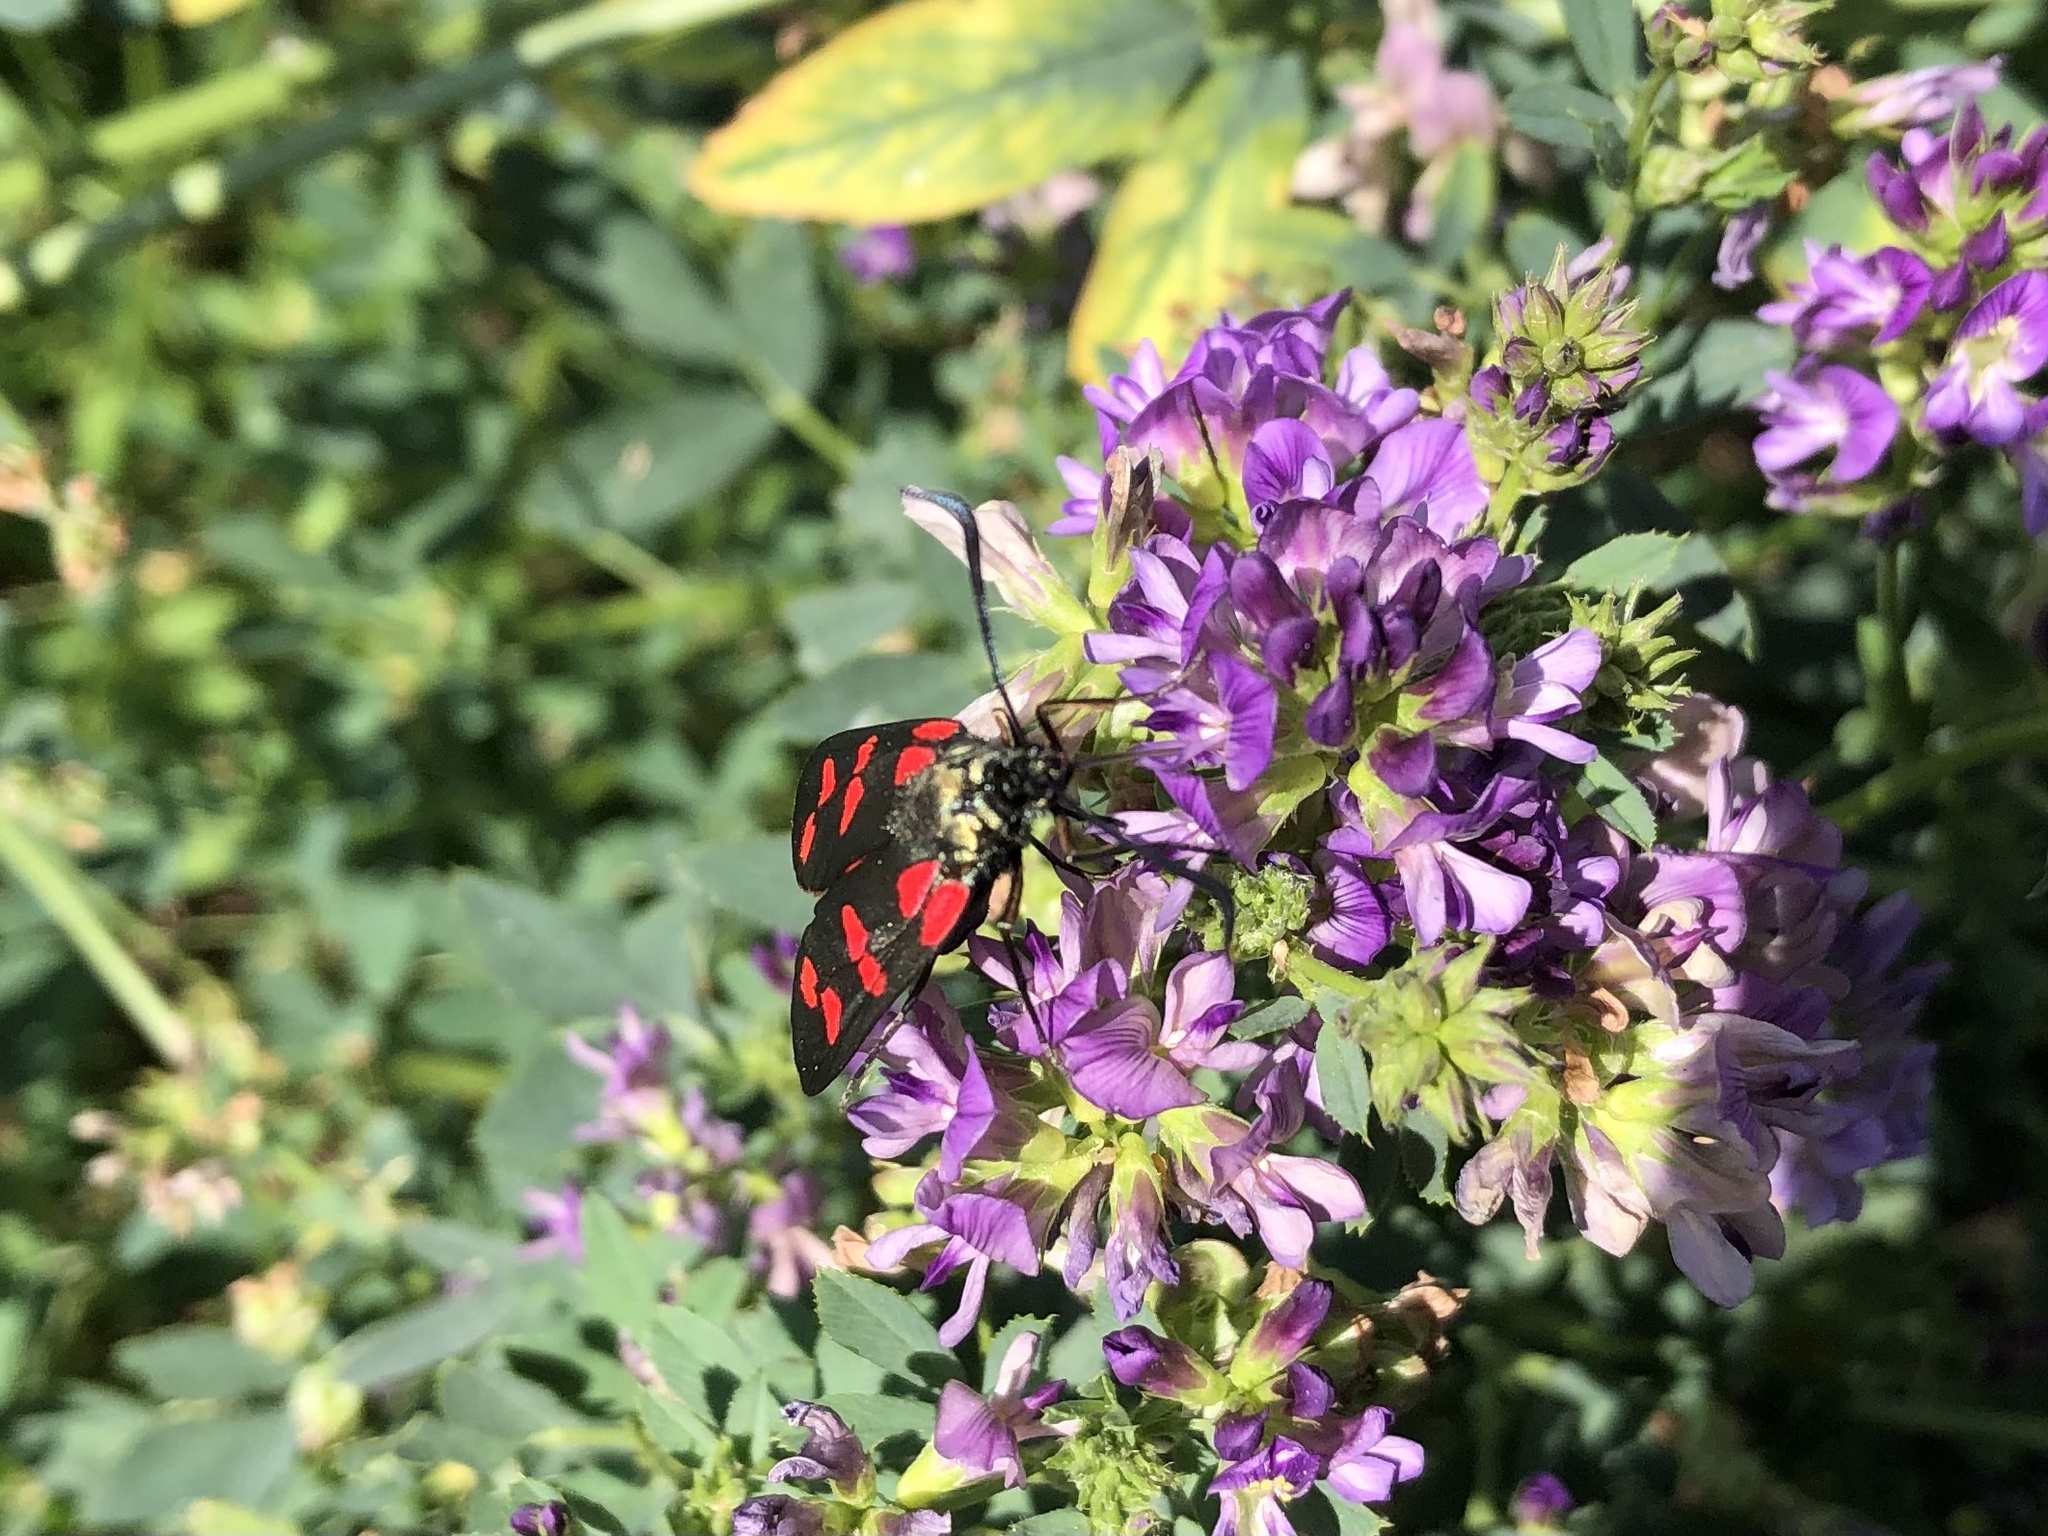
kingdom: Animalia
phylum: Arthropoda
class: Insecta
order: Lepidoptera
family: Zygaenidae
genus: Zygaena
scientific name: Zygaena filipendulae
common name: Six-spot burnet
